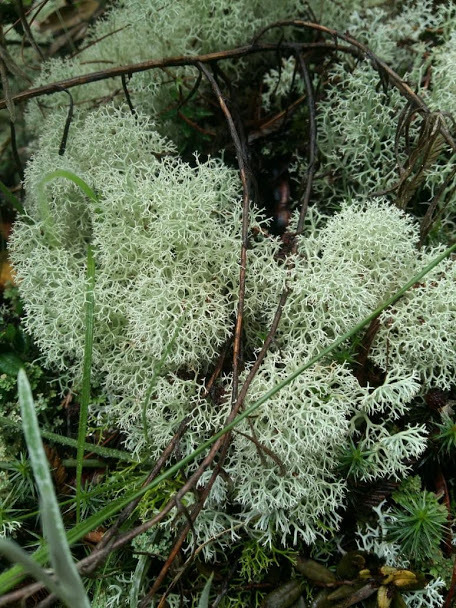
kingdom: Fungi
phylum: Ascomycota
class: Lecanoromycetes
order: Lecanorales
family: Cladoniaceae
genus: Cladonia
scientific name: Cladonia stellaris
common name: Star-tipped reindeer lichen
